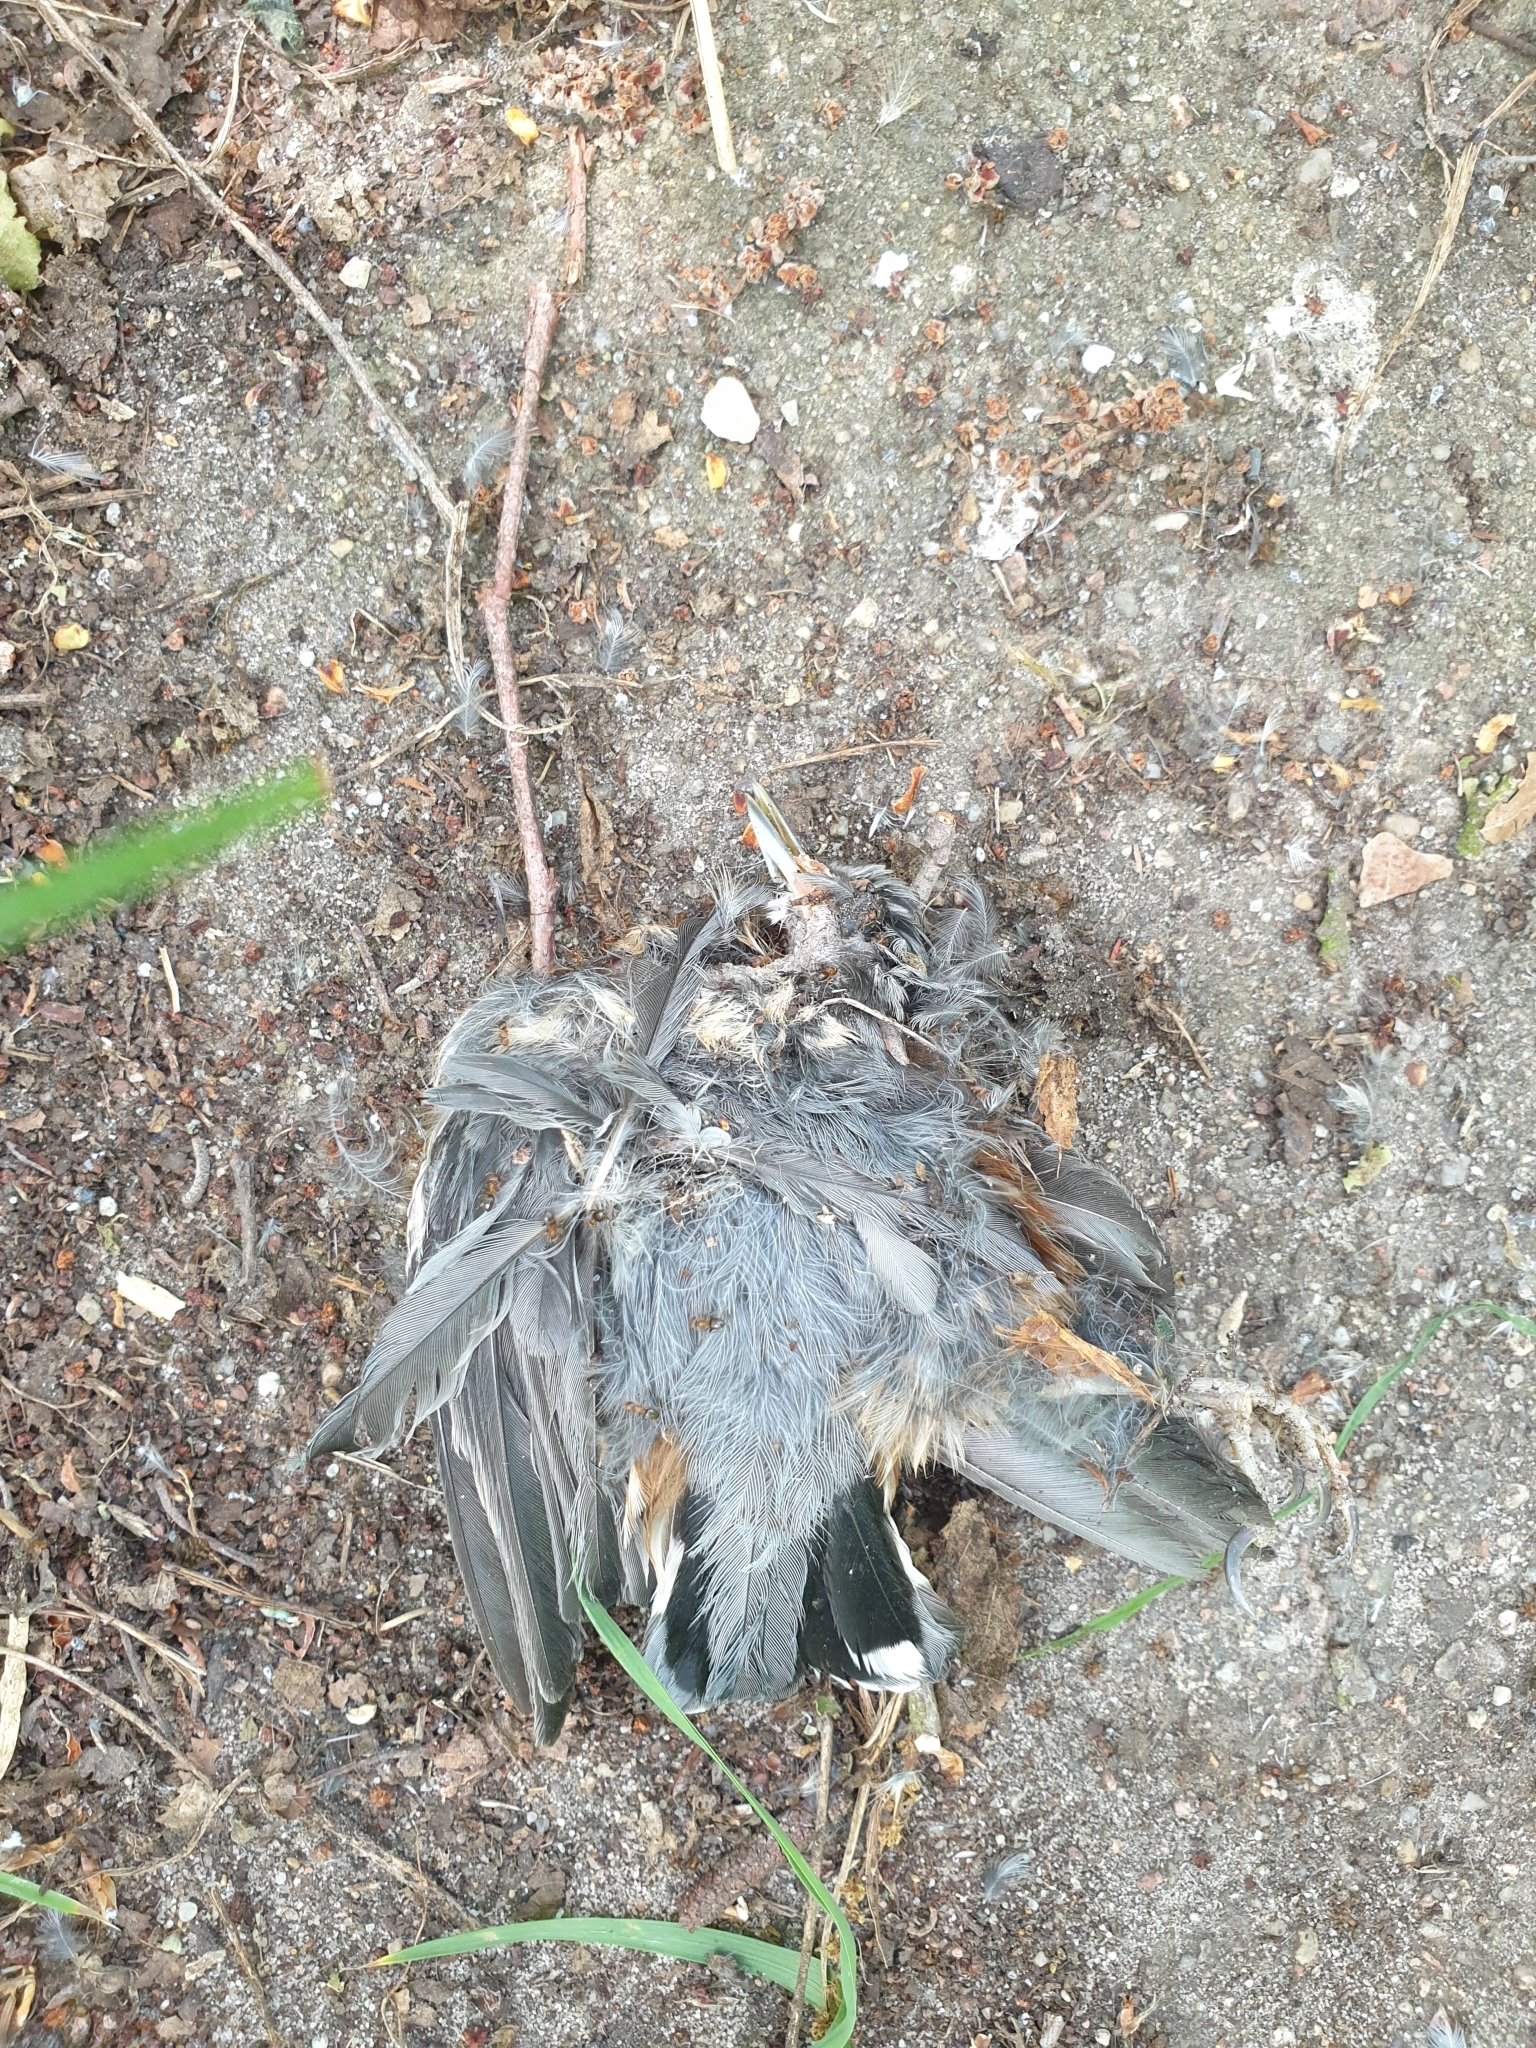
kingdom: Animalia
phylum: Chordata
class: Aves
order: Passeriformes
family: Sittidae
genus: Sitta
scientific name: Sitta europaea
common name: Eurasian nuthatch
